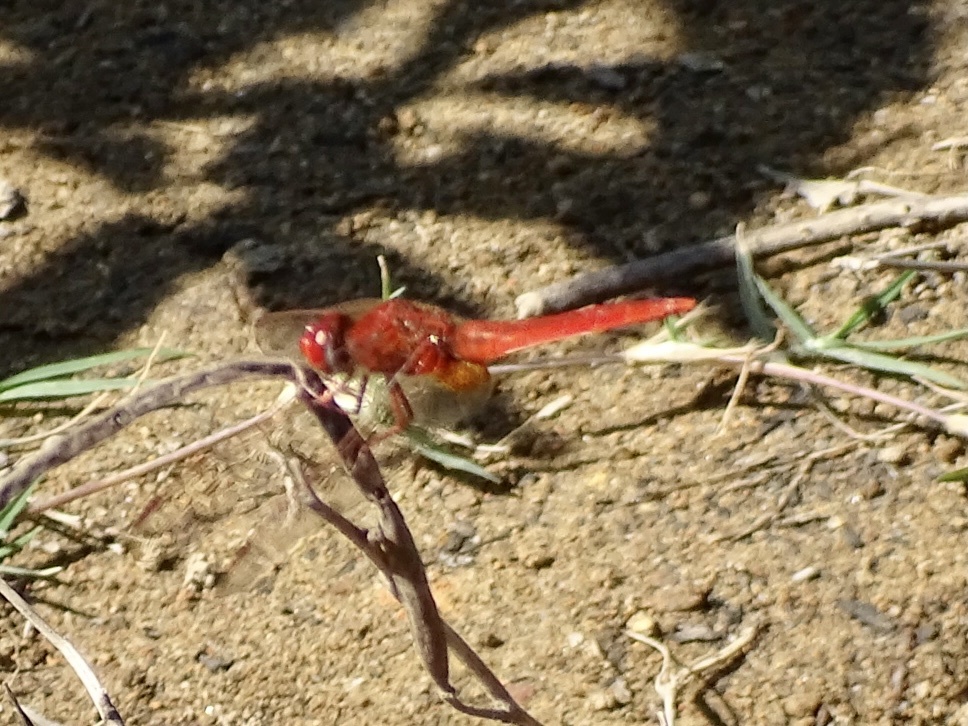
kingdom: Animalia
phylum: Arthropoda
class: Insecta
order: Odonata
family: Libellulidae
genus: Crocothemis
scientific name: Crocothemis servilia
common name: Scarlet skimmer
